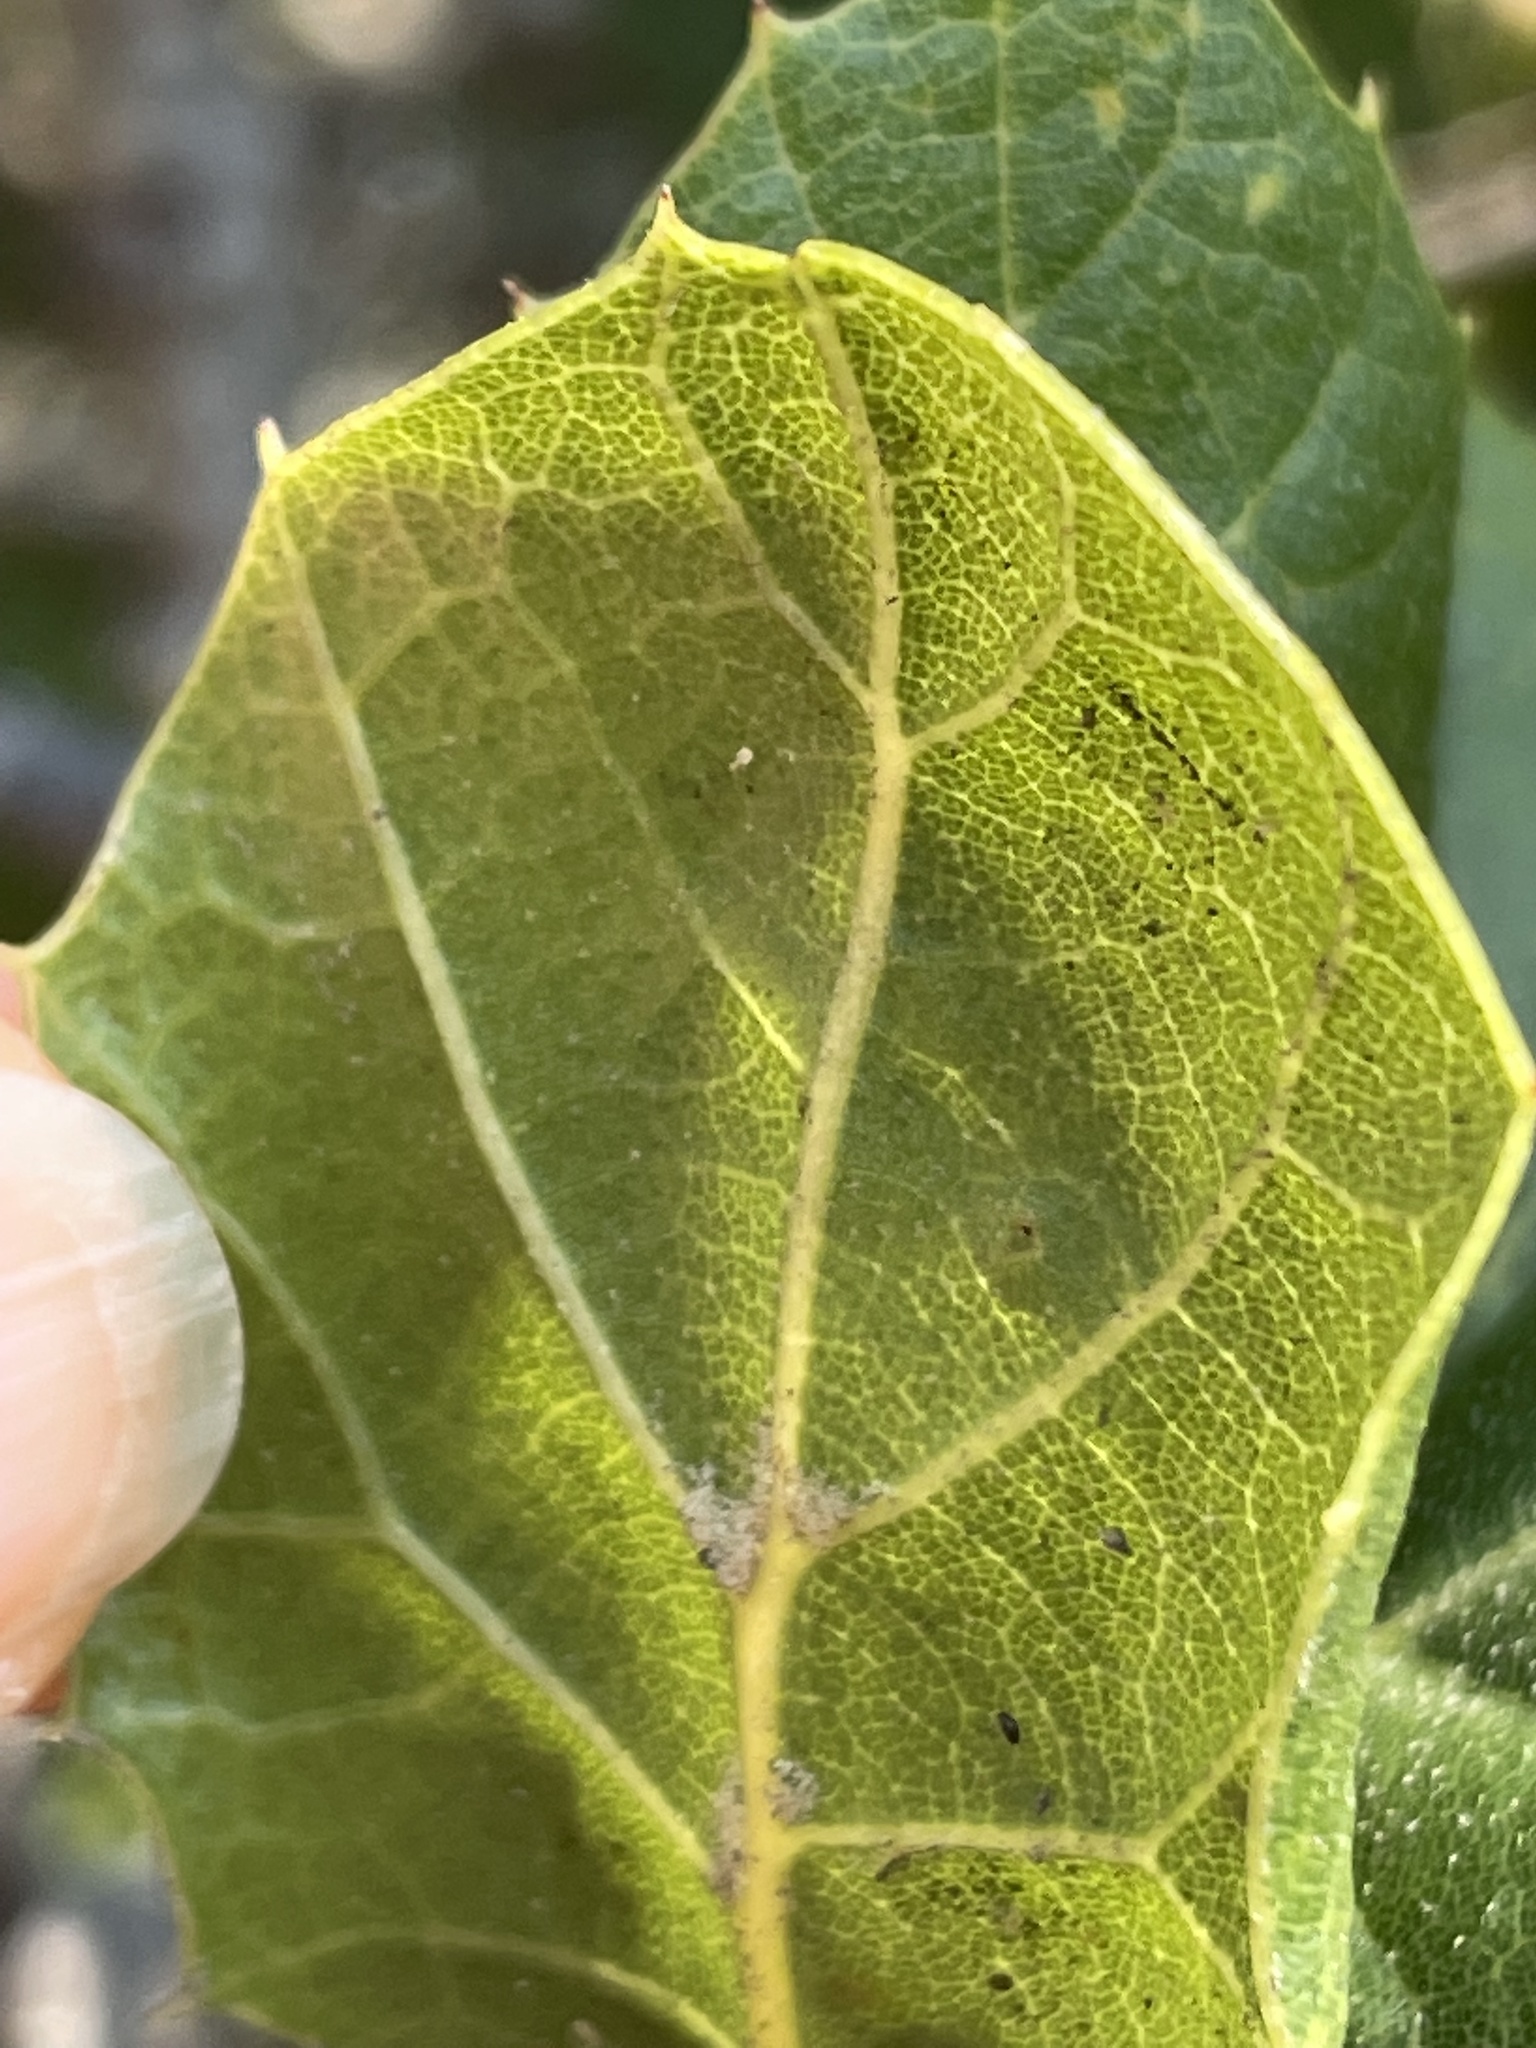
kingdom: Plantae
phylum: Tracheophyta
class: Magnoliopsida
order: Fagales
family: Fagaceae
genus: Quercus
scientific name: Quercus agrifolia
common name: California live oak
